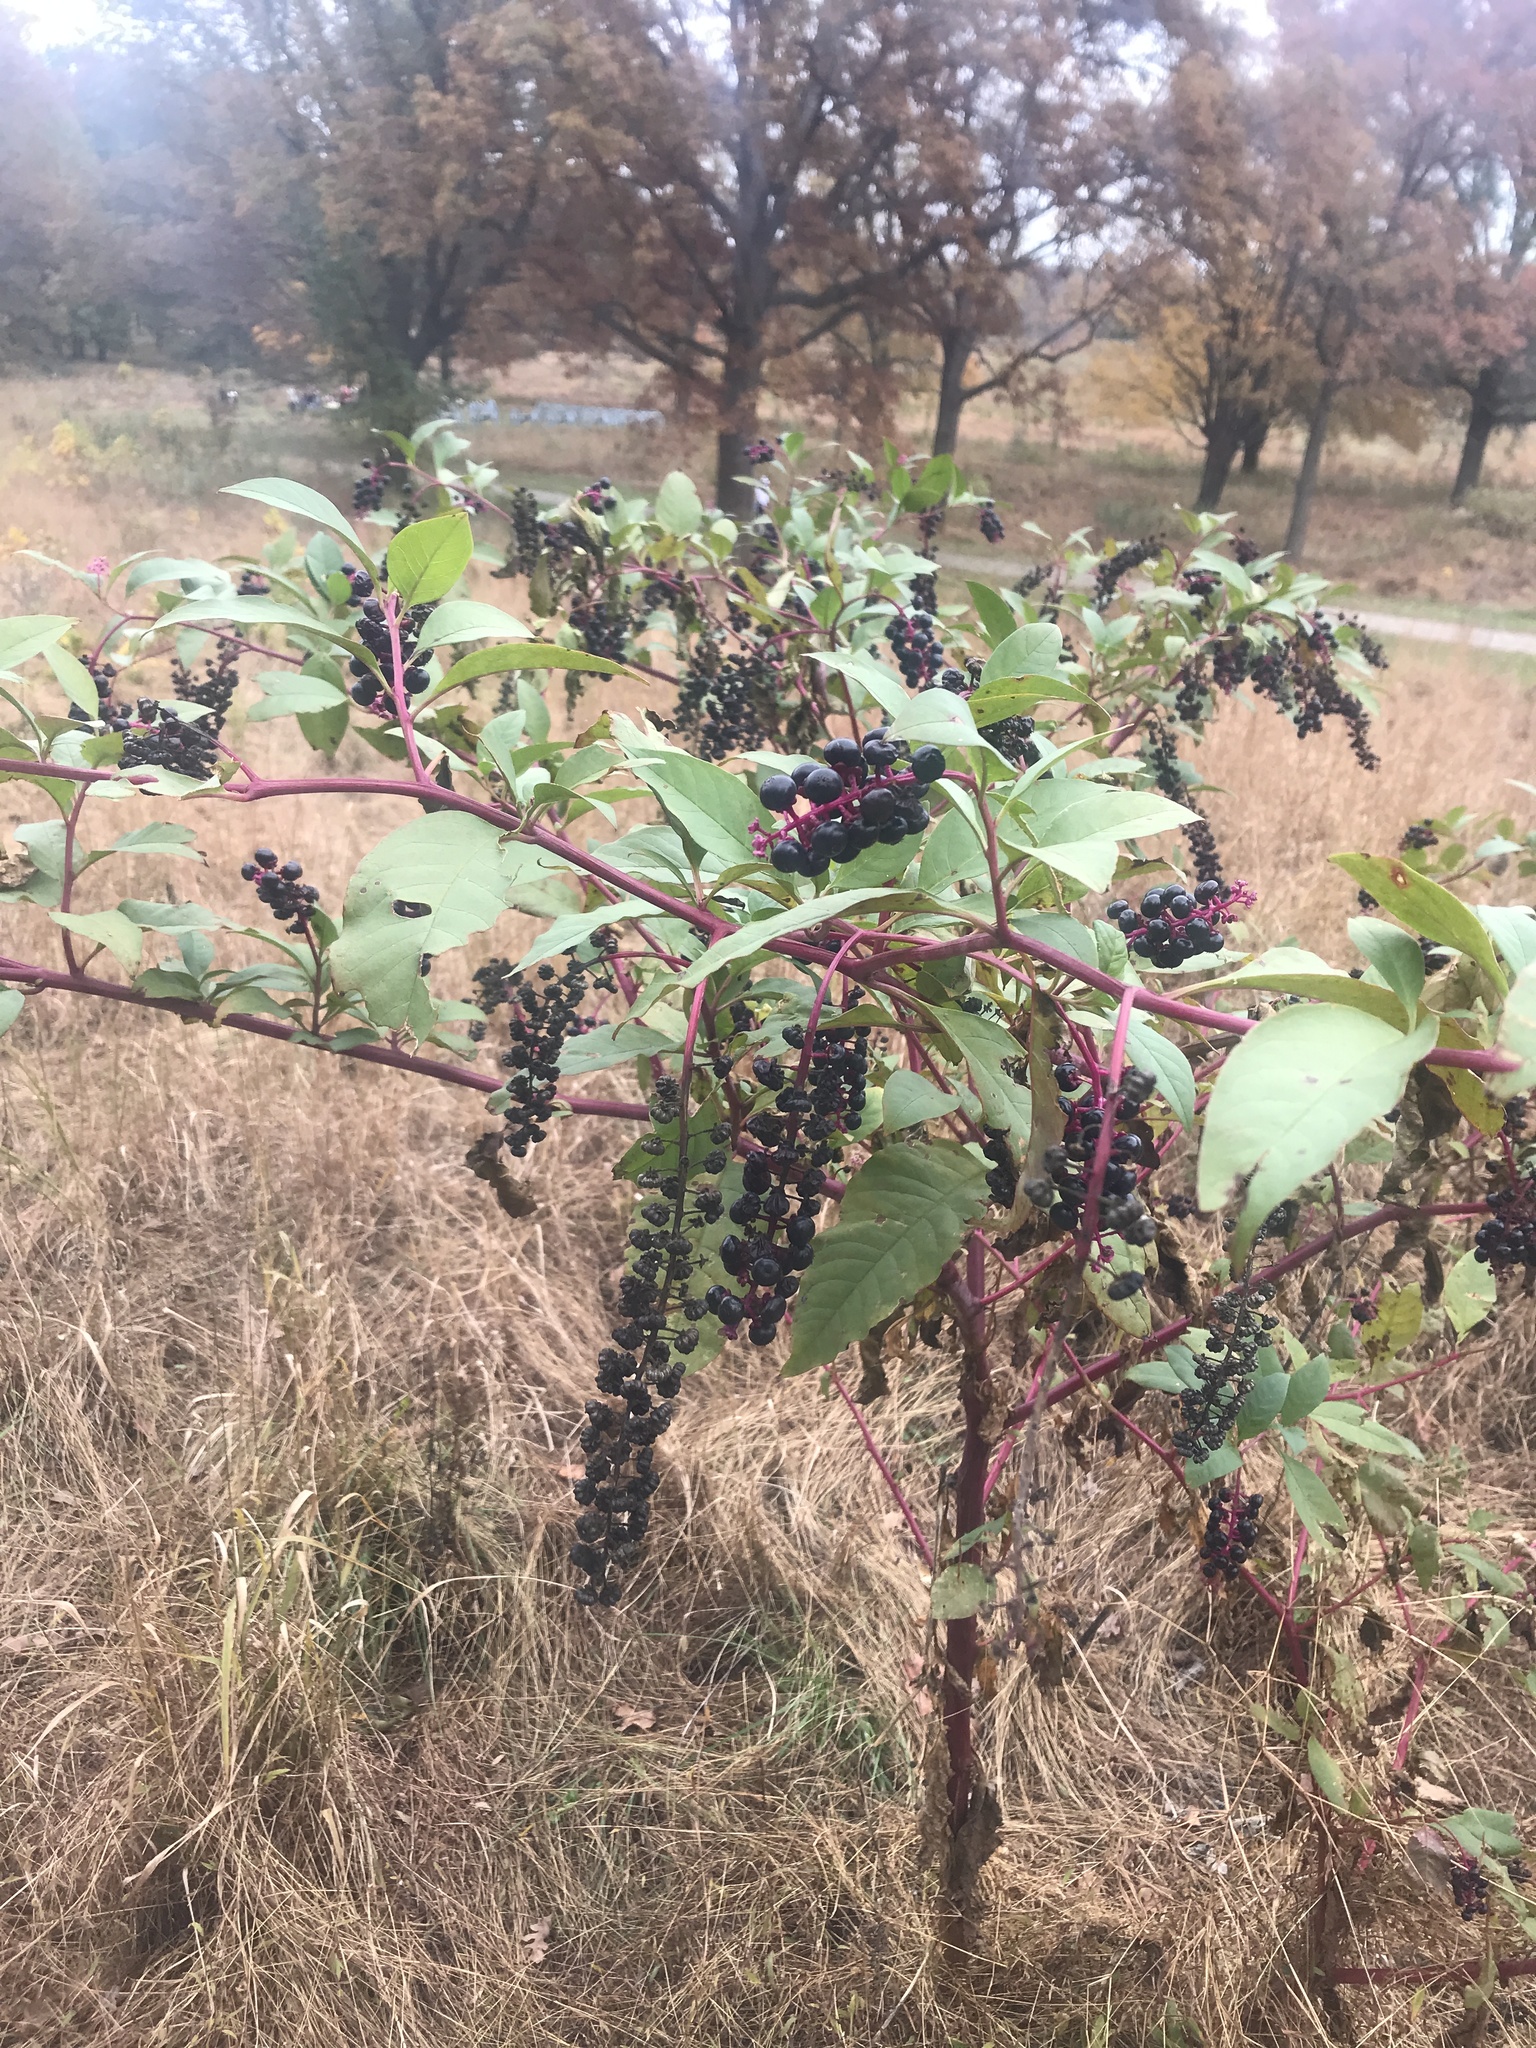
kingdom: Plantae
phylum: Tracheophyta
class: Magnoliopsida
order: Caryophyllales
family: Phytolaccaceae
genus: Phytolacca
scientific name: Phytolacca americana
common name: American pokeweed
